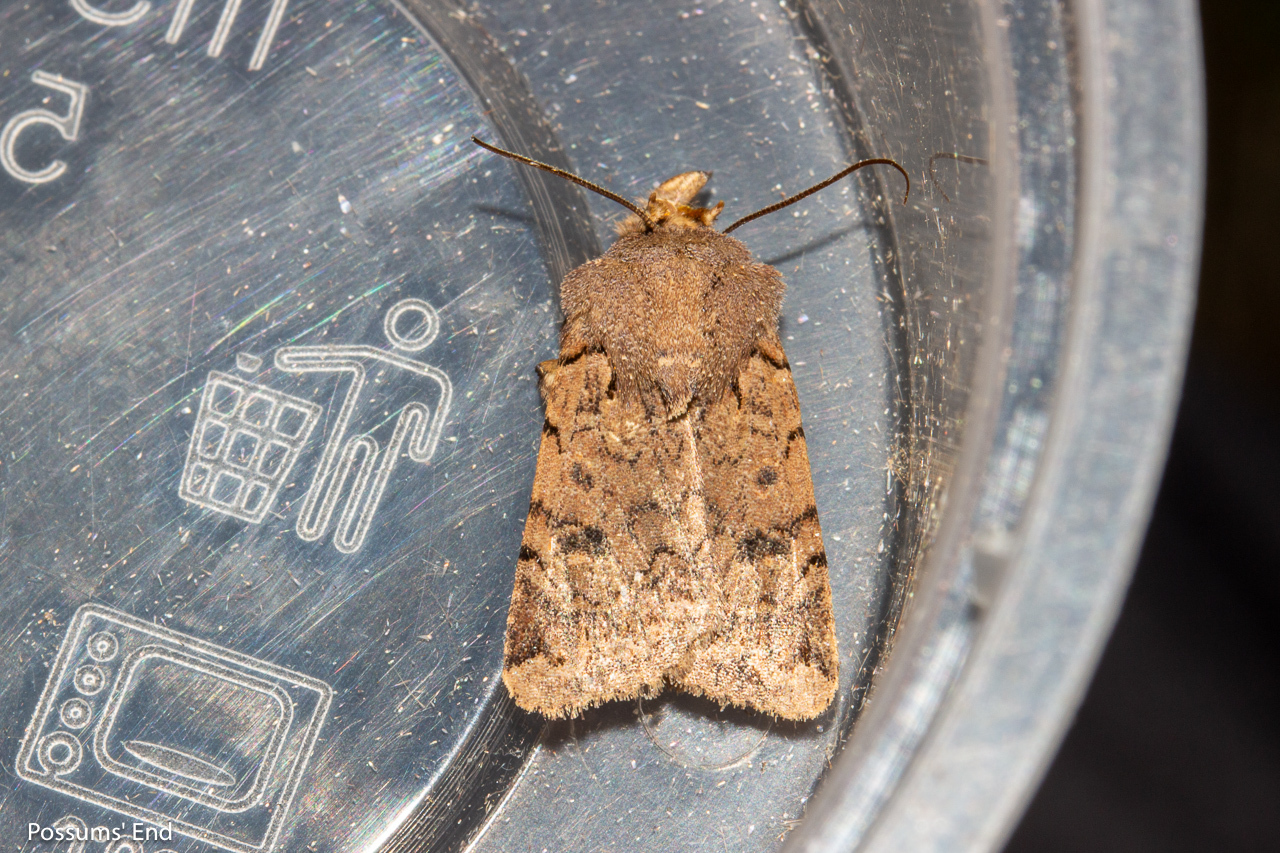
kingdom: Animalia
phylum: Arthropoda
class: Insecta
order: Lepidoptera
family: Noctuidae
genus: Austramathes
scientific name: Austramathes
